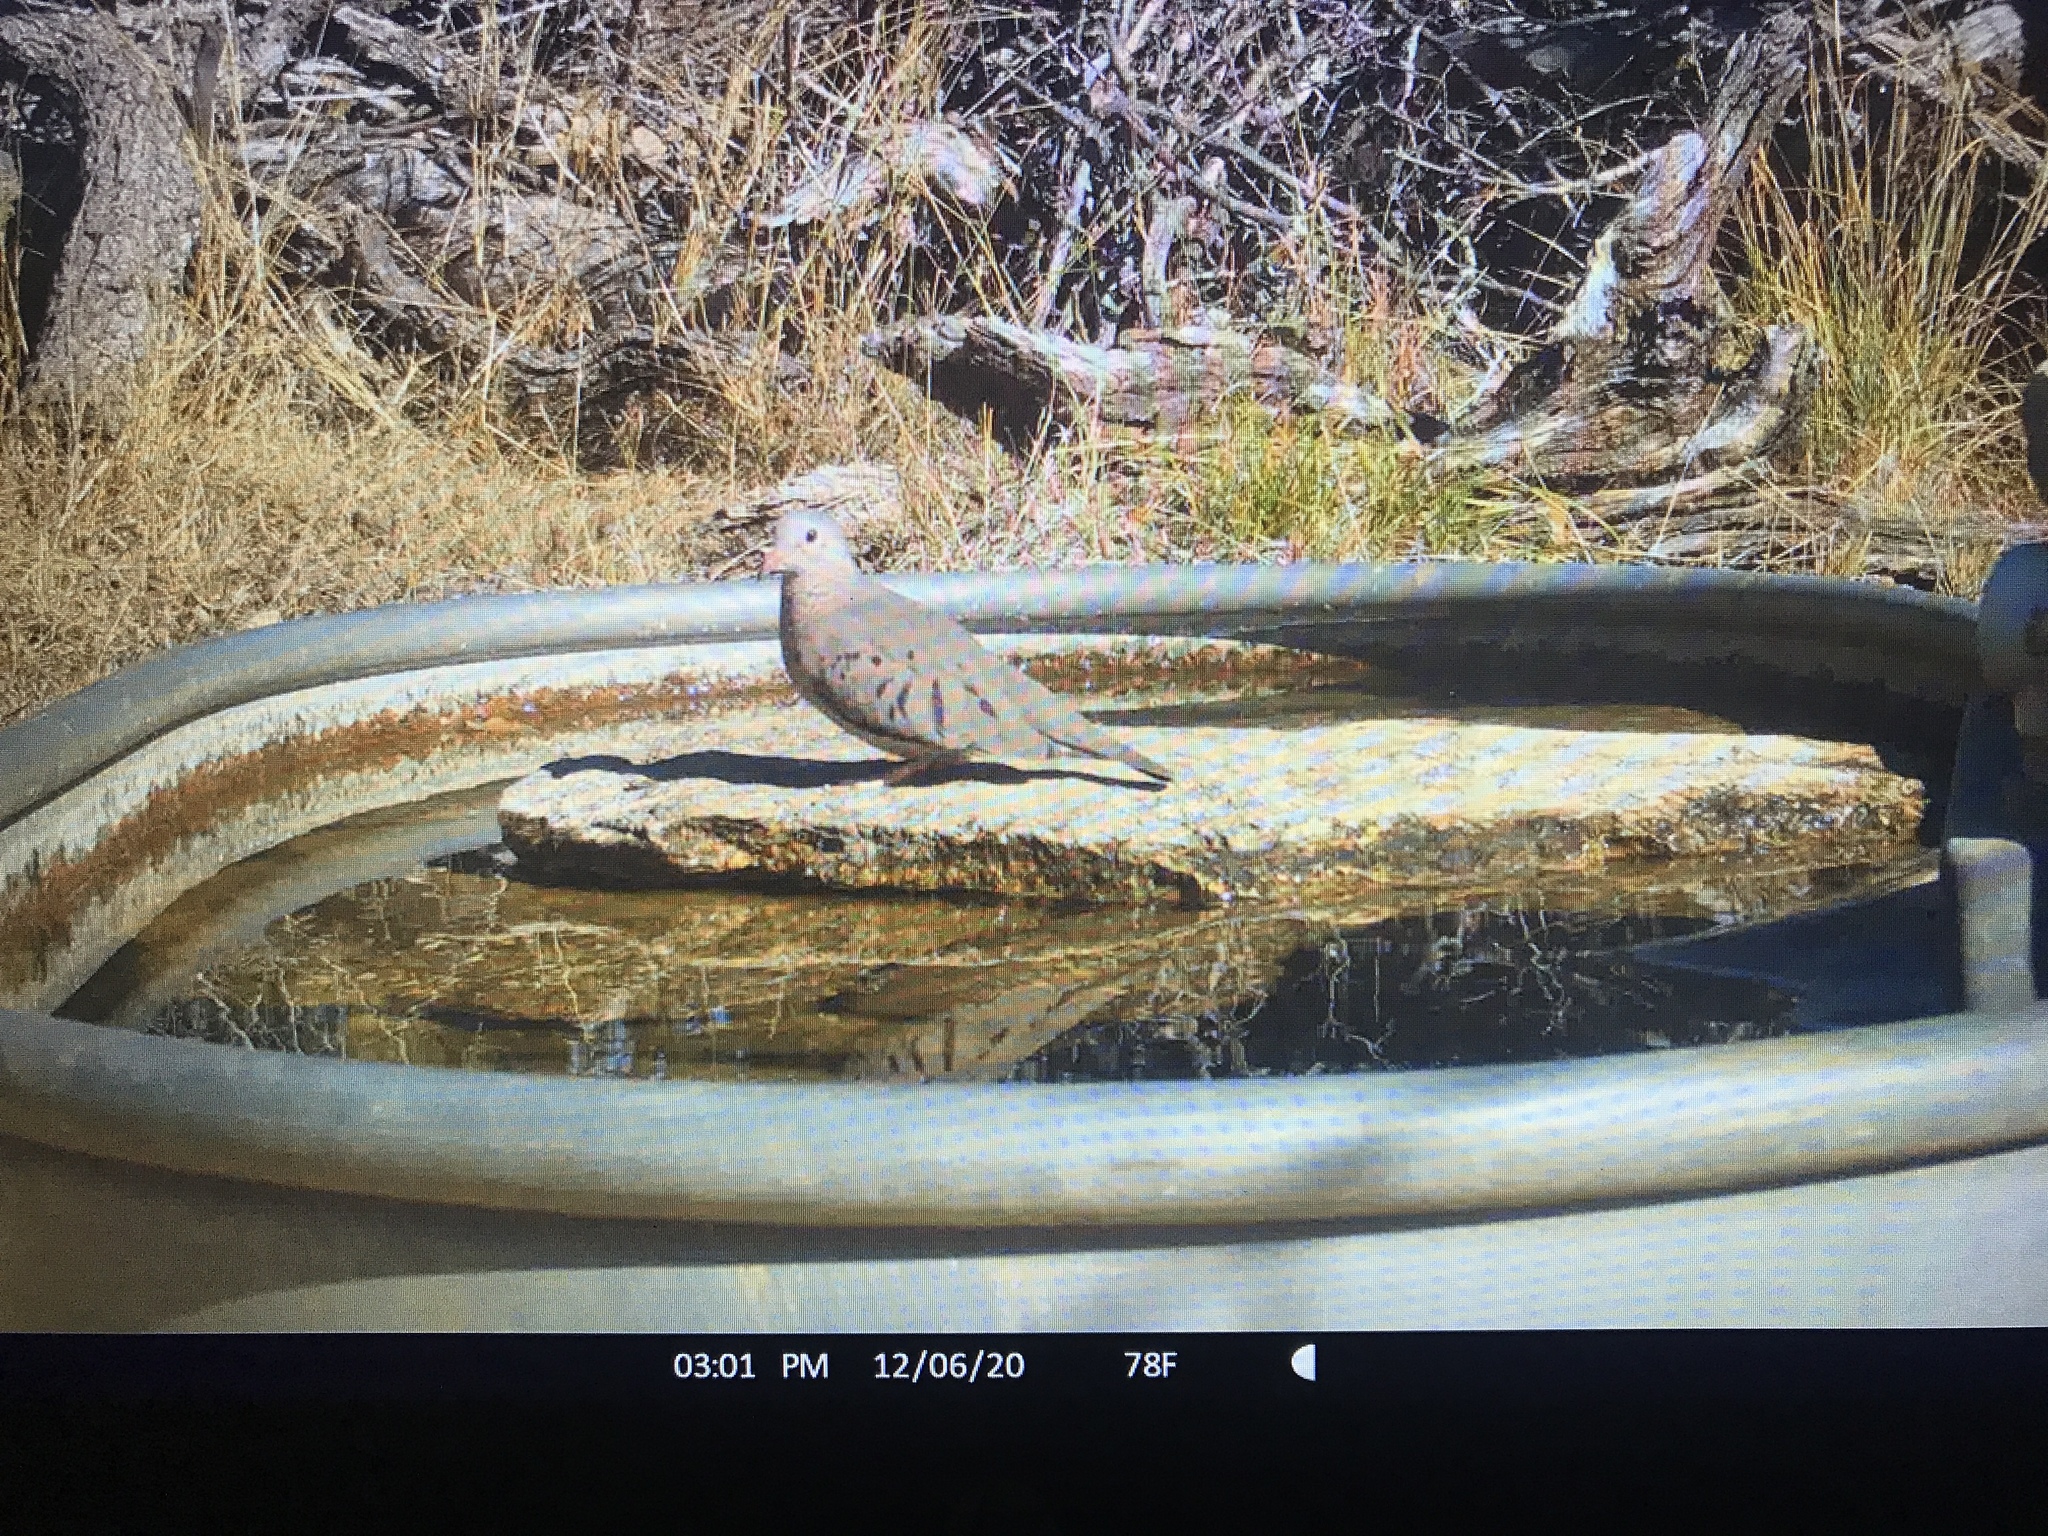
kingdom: Animalia
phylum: Chordata
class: Aves
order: Columbiformes
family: Columbidae
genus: Columbina
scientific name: Columbina passerina
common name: Common ground-dove
